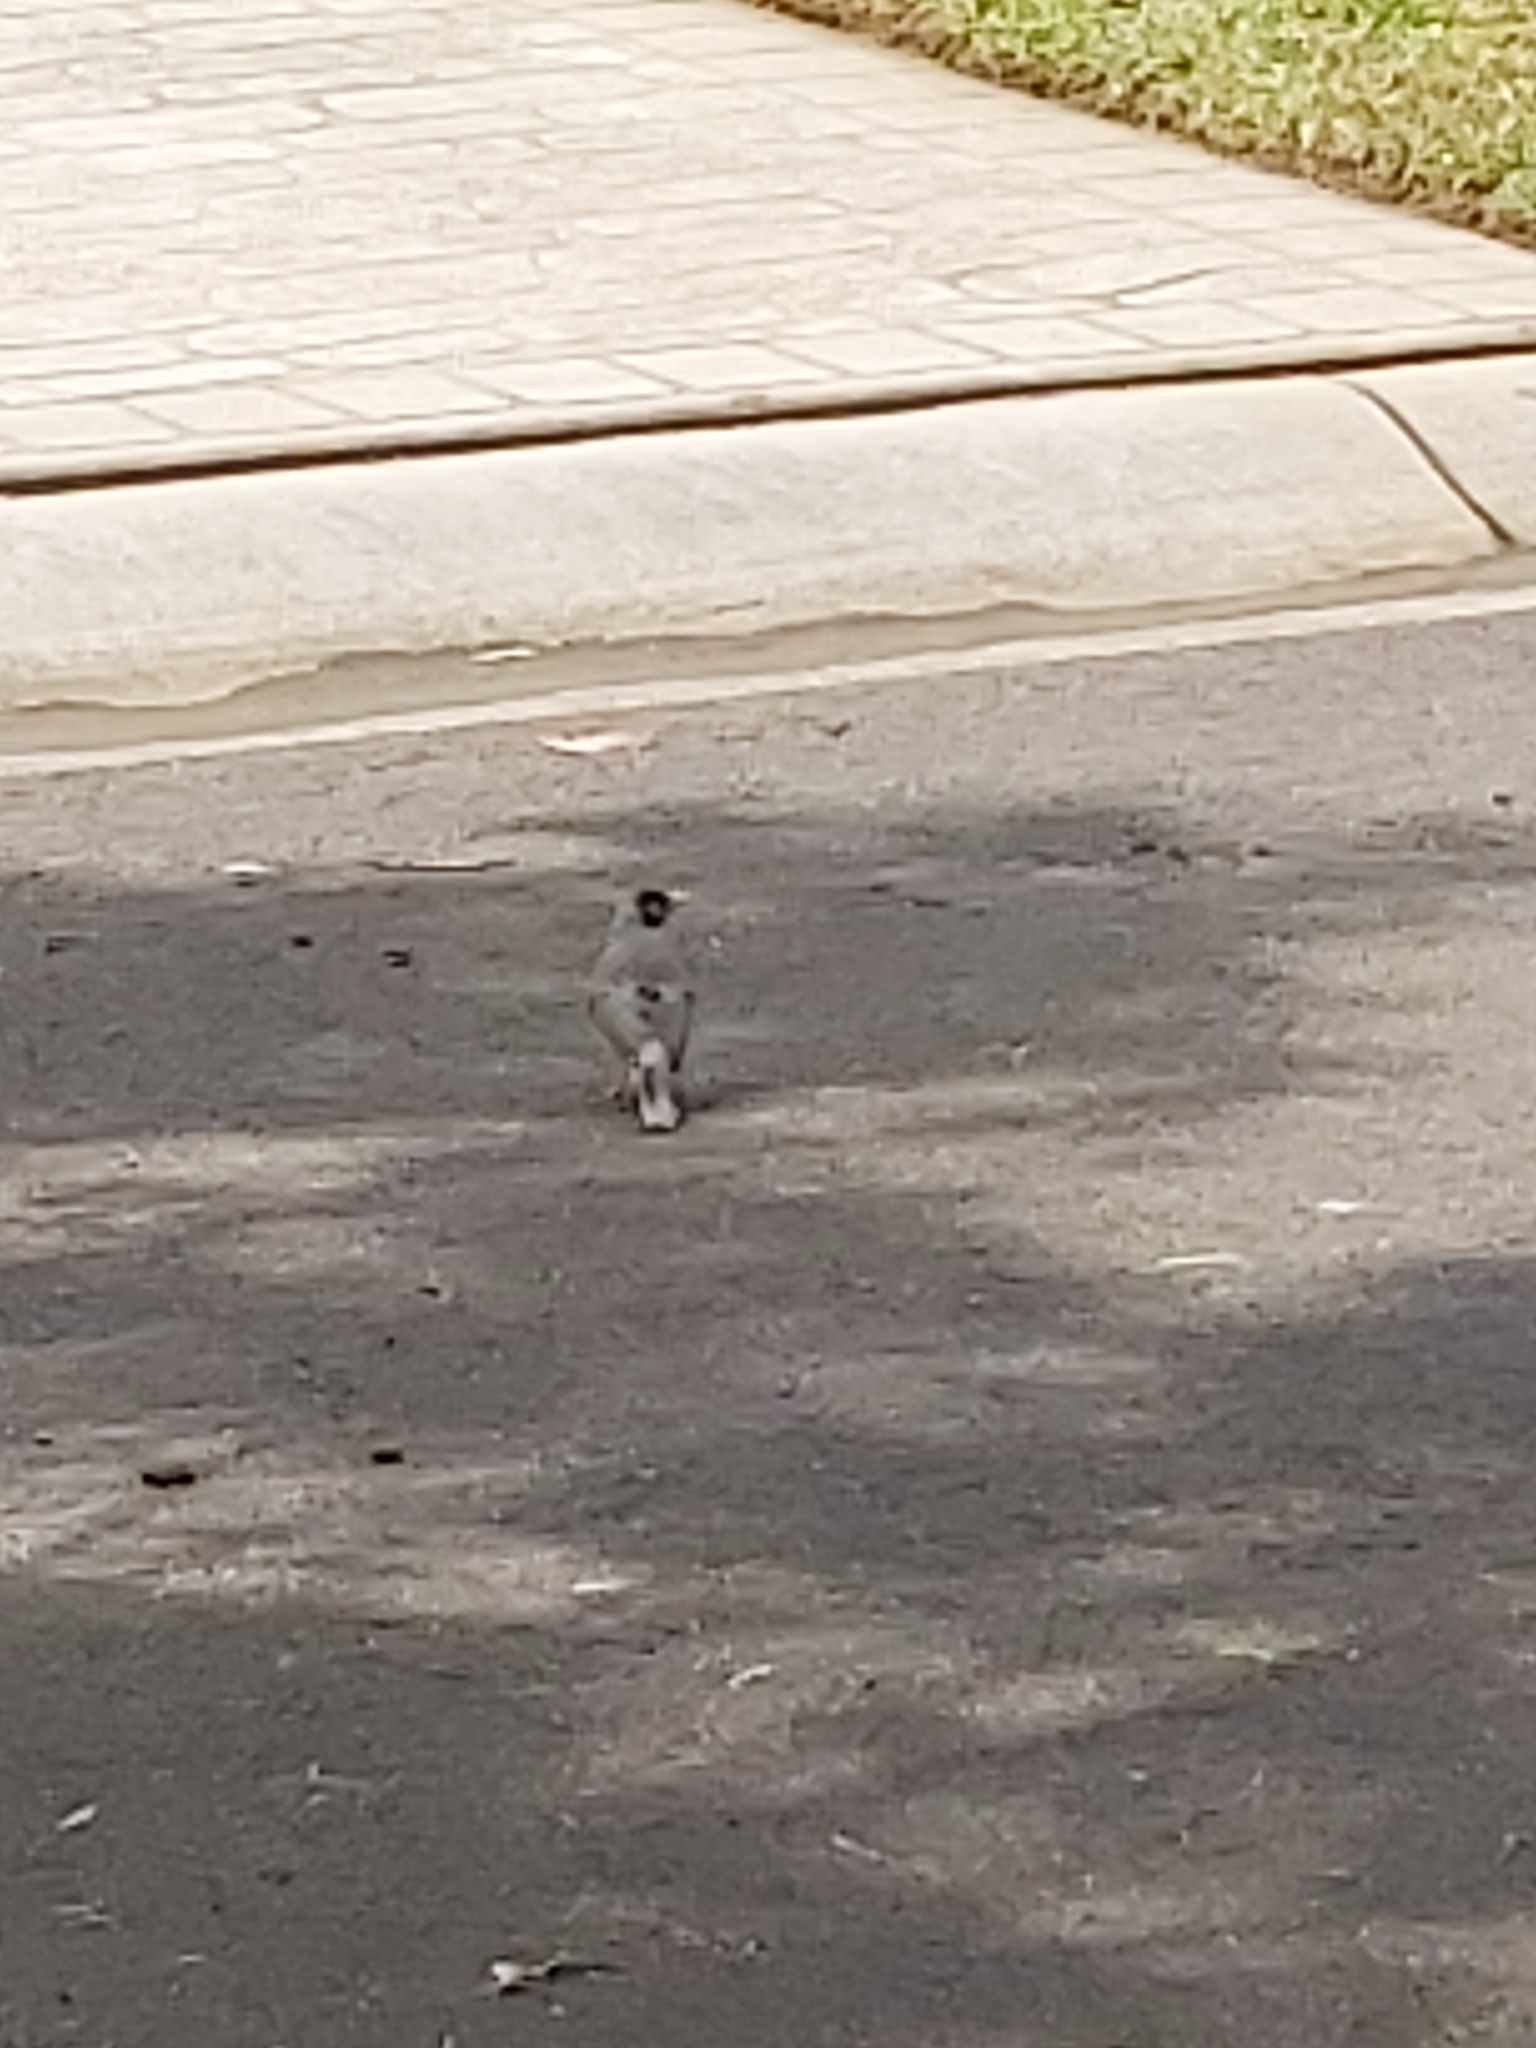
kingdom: Animalia
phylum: Chordata
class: Aves
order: Passeriformes
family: Meliphagidae
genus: Manorina
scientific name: Manorina melanocephala
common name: Noisy miner
